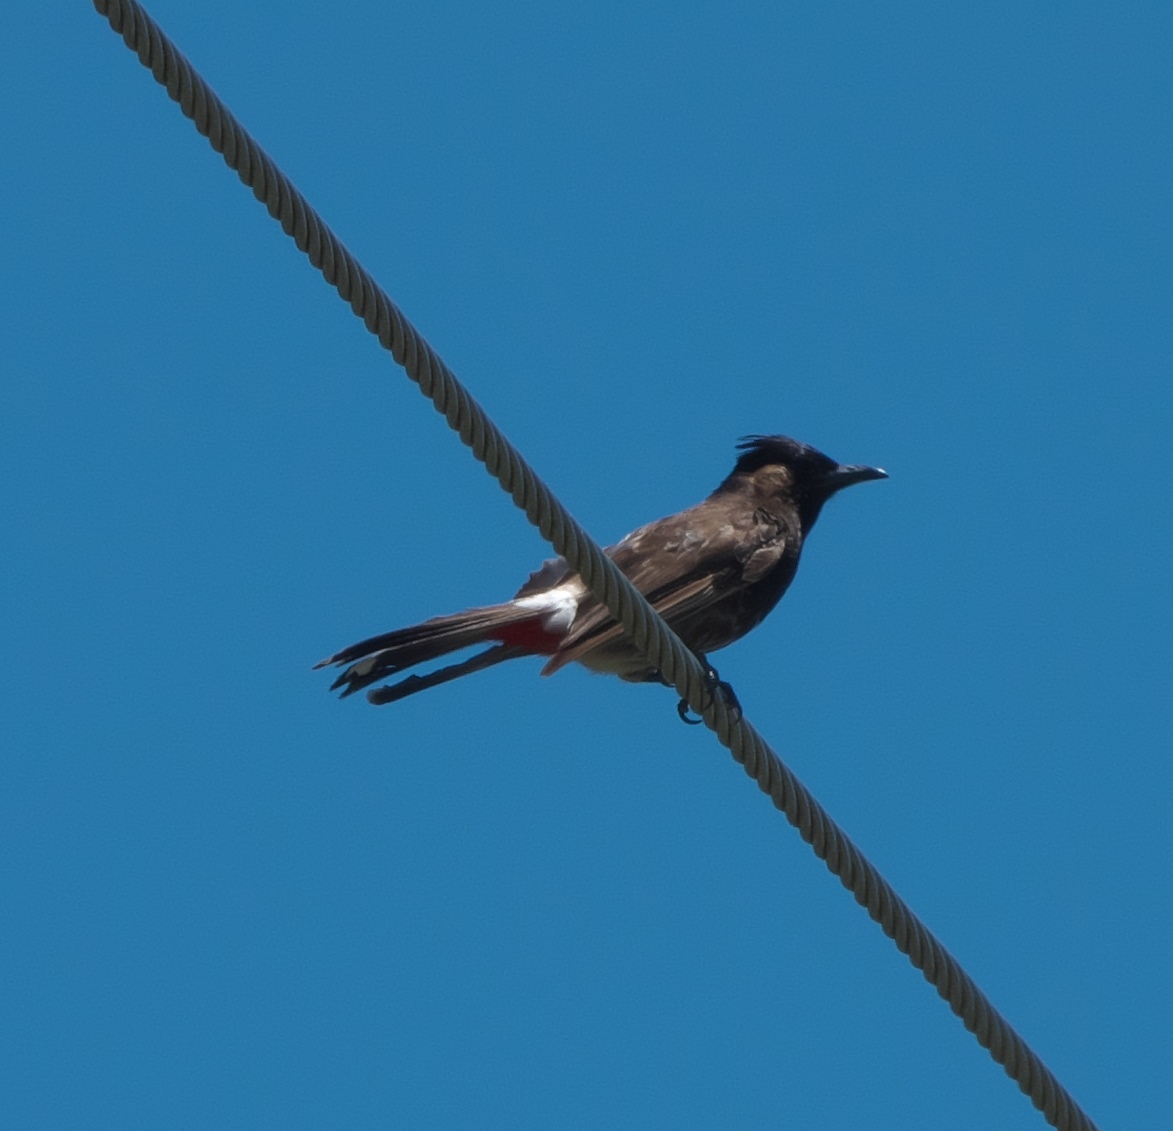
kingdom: Animalia
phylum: Chordata
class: Aves
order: Passeriformes
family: Pycnonotidae
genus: Pycnonotus
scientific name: Pycnonotus cafer
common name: Red-vented bulbul
